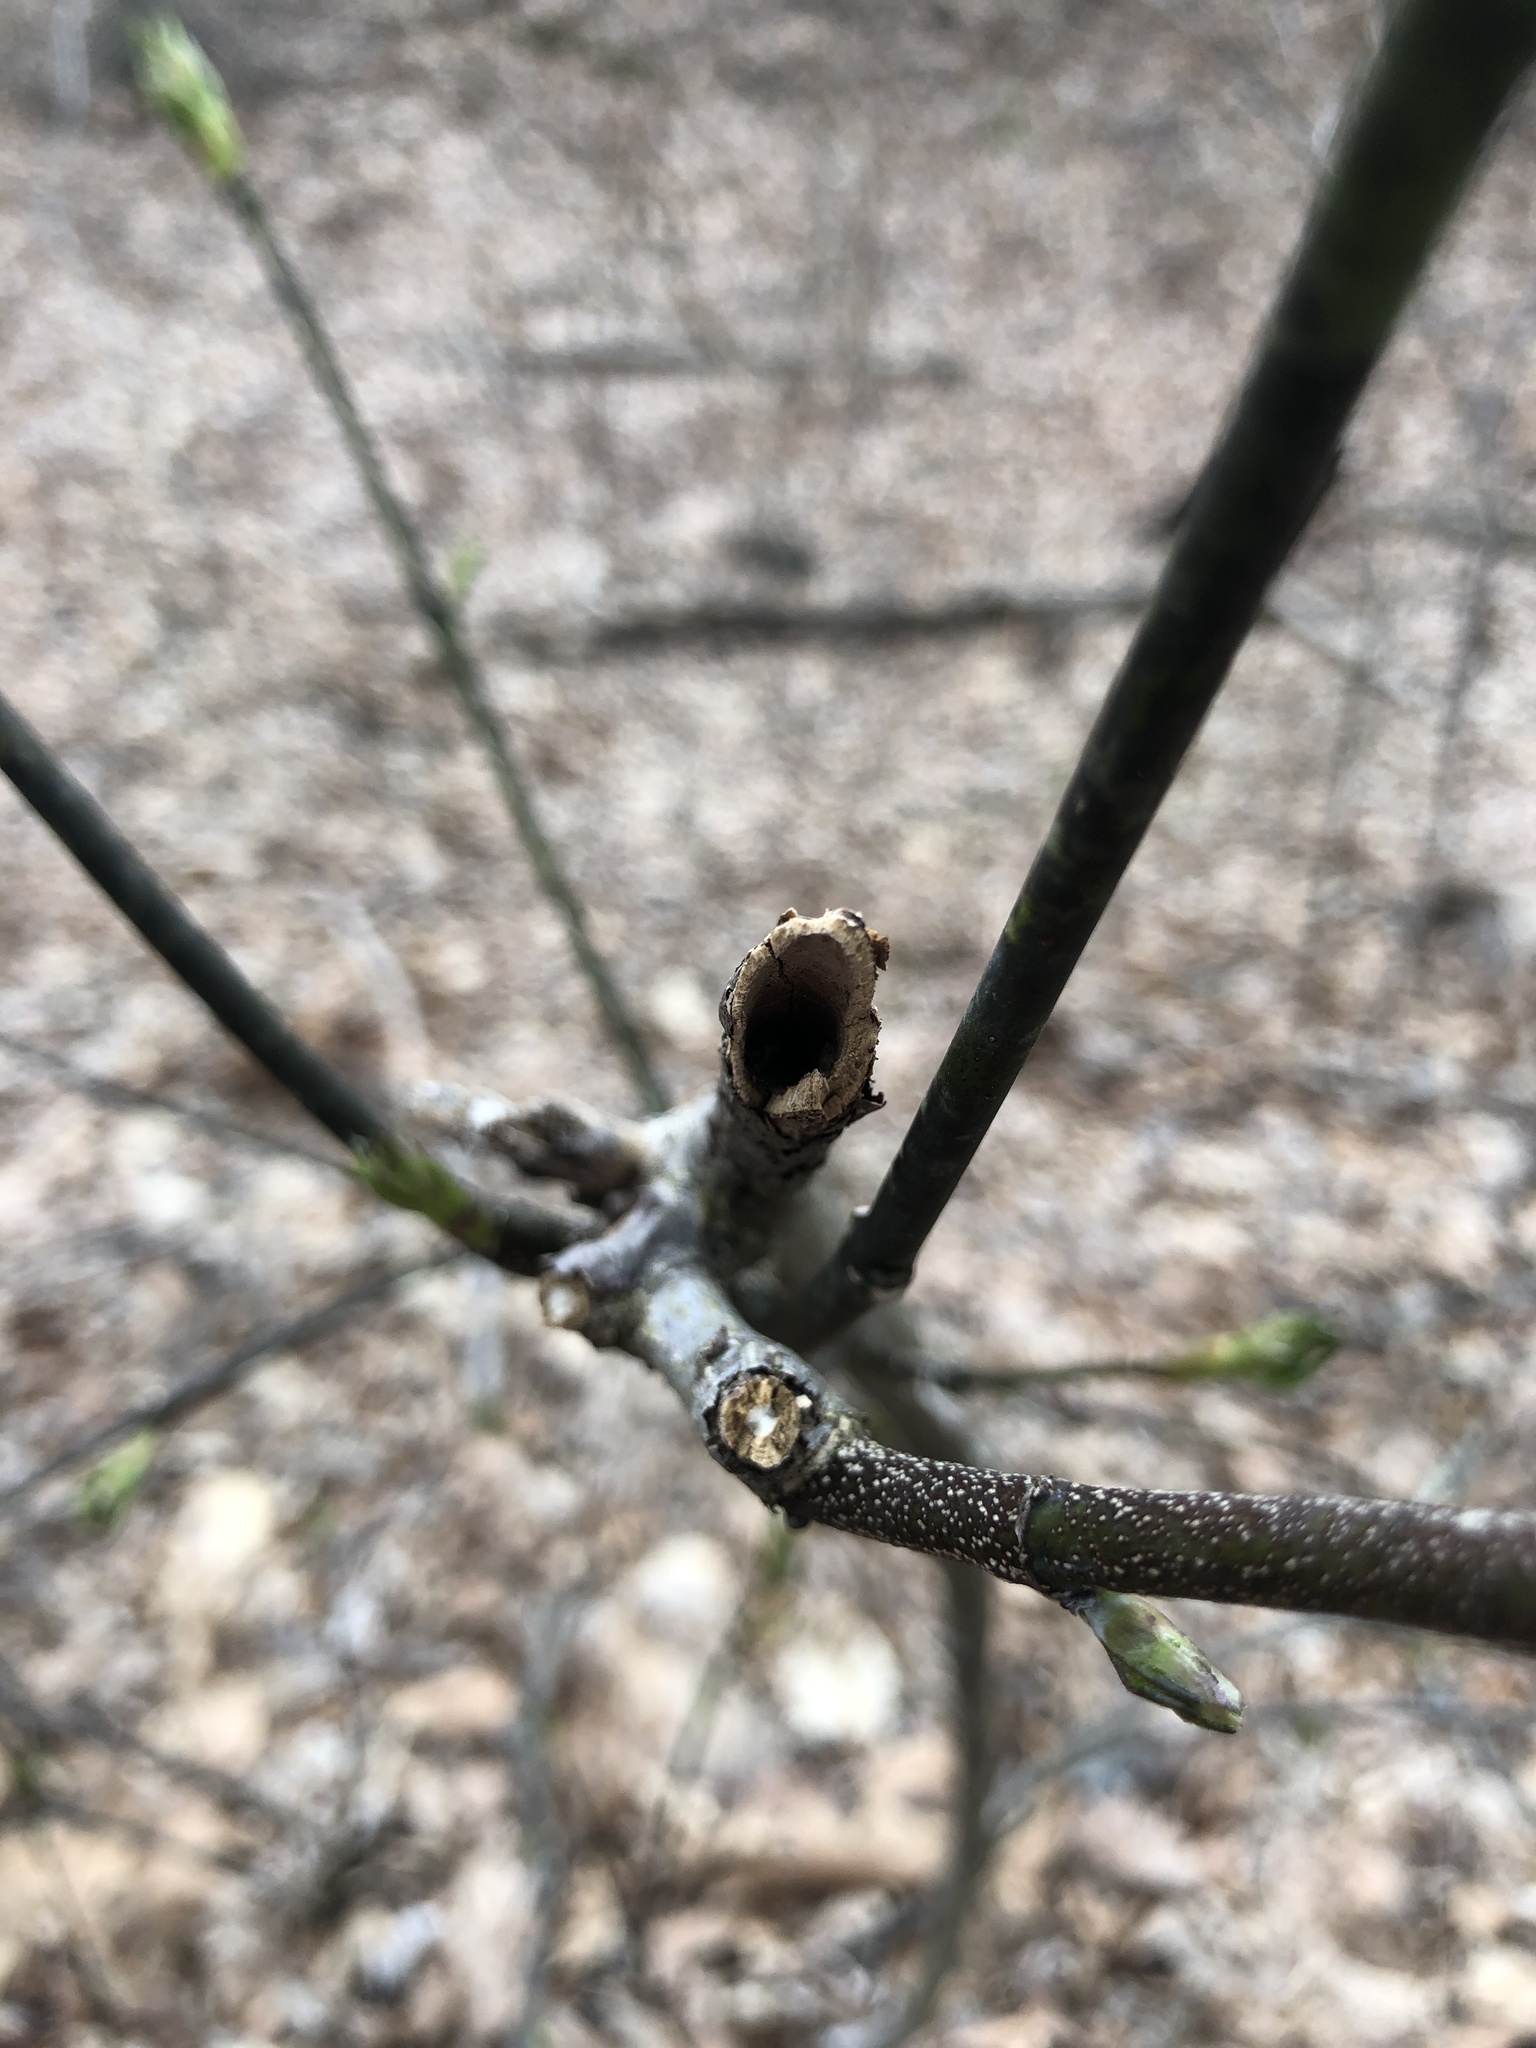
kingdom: Plantae
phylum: Tracheophyta
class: Magnoliopsida
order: Crossosomatales
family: Staphyleaceae
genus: Staphylea
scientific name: Staphylea trifolia
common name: American bladdernut
